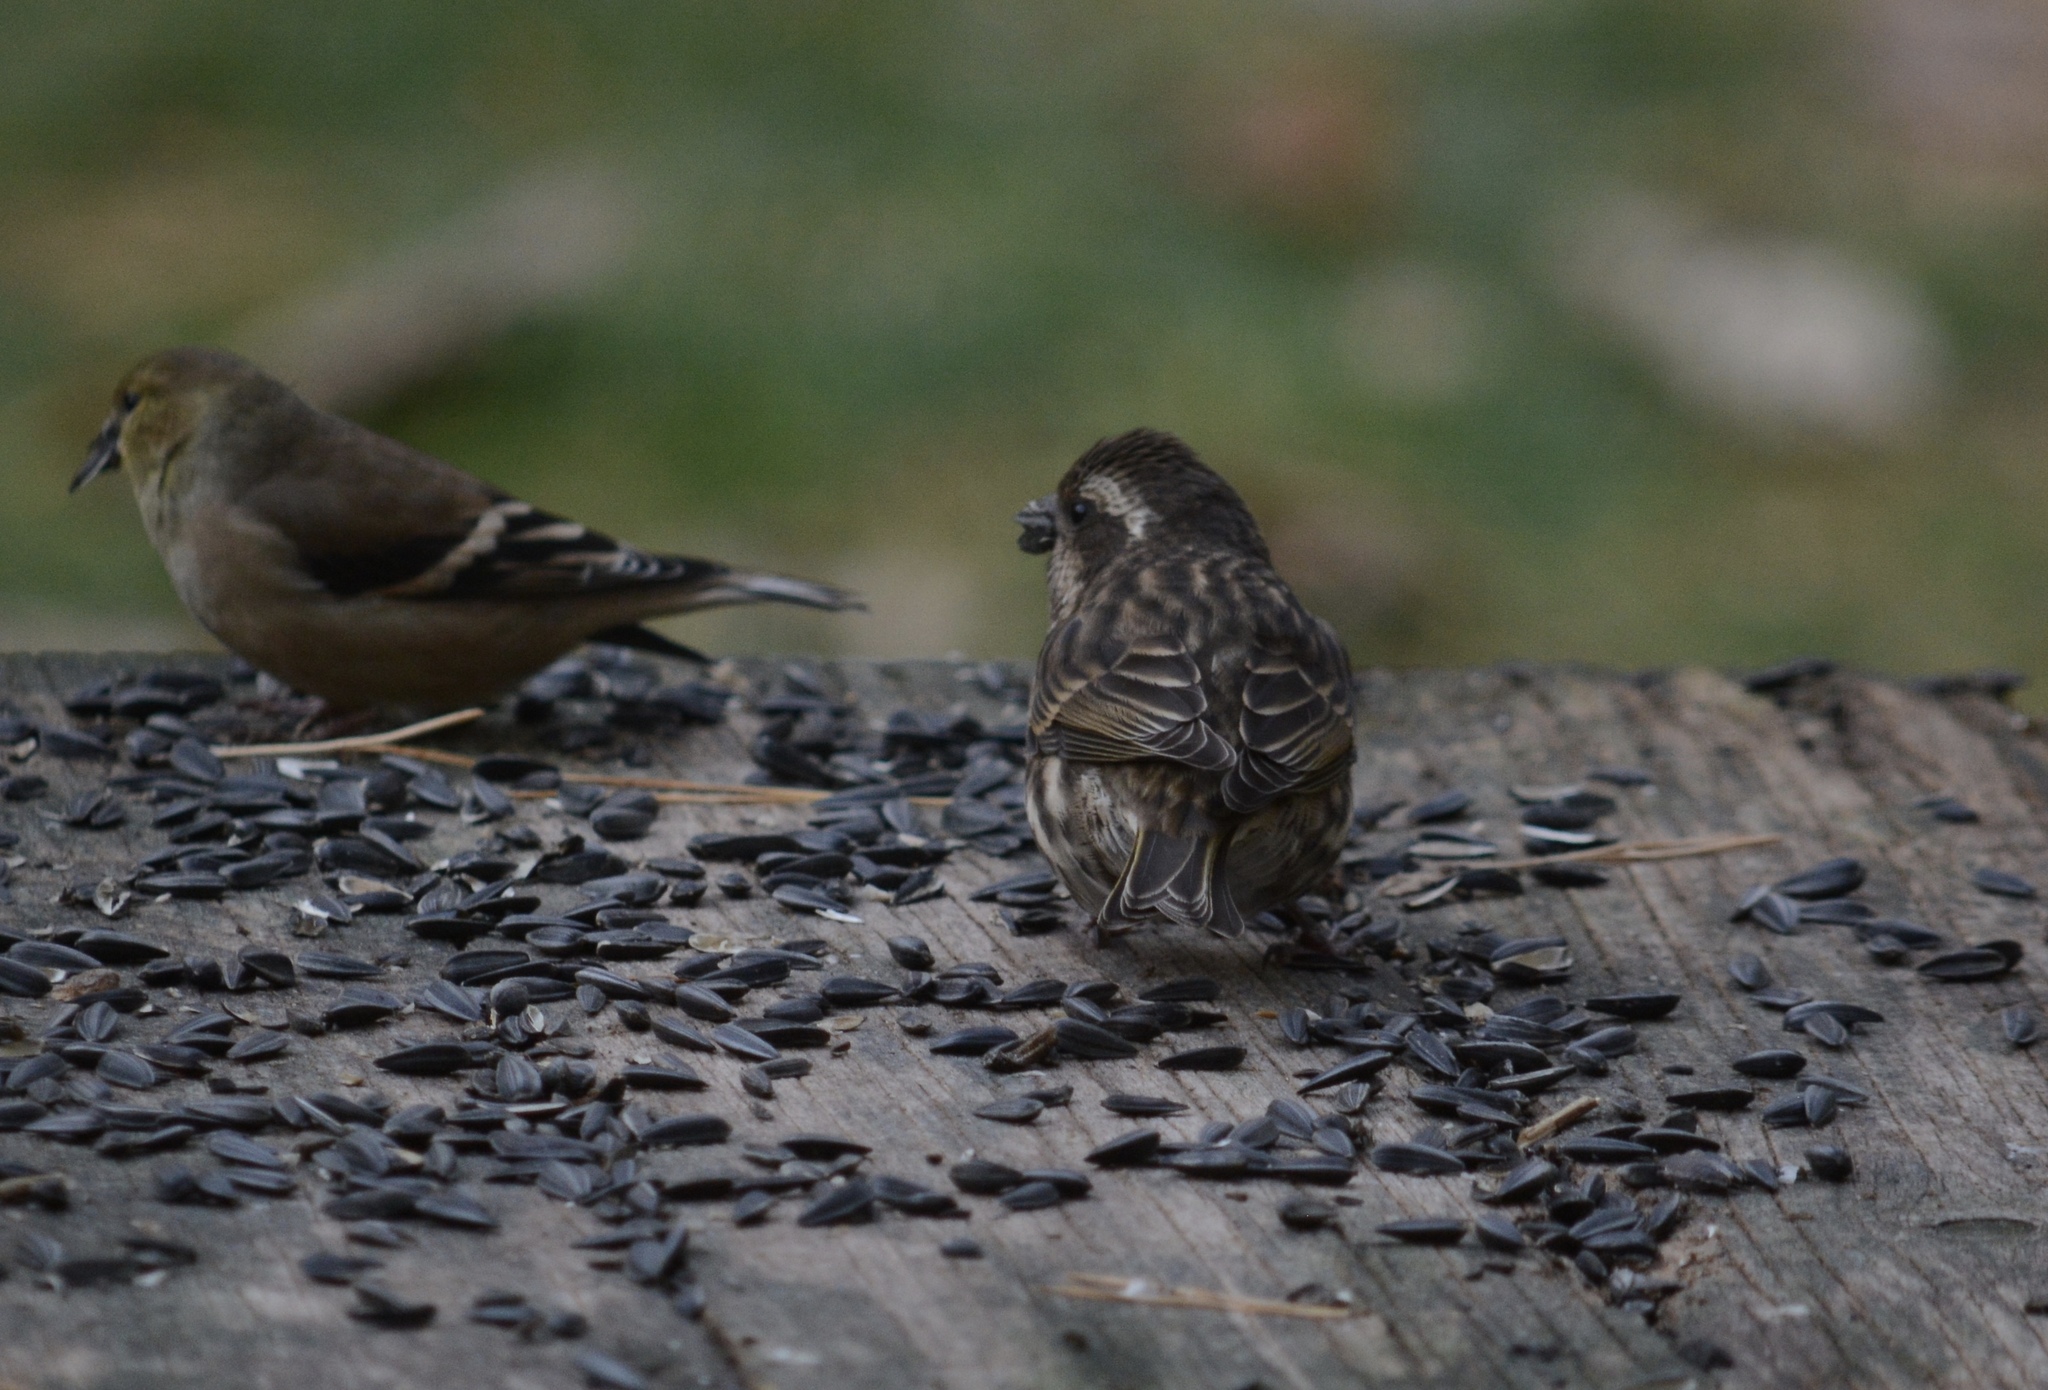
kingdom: Animalia
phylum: Chordata
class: Aves
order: Passeriformes
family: Fringillidae
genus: Haemorhous
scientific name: Haemorhous purpureus
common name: Purple finch
